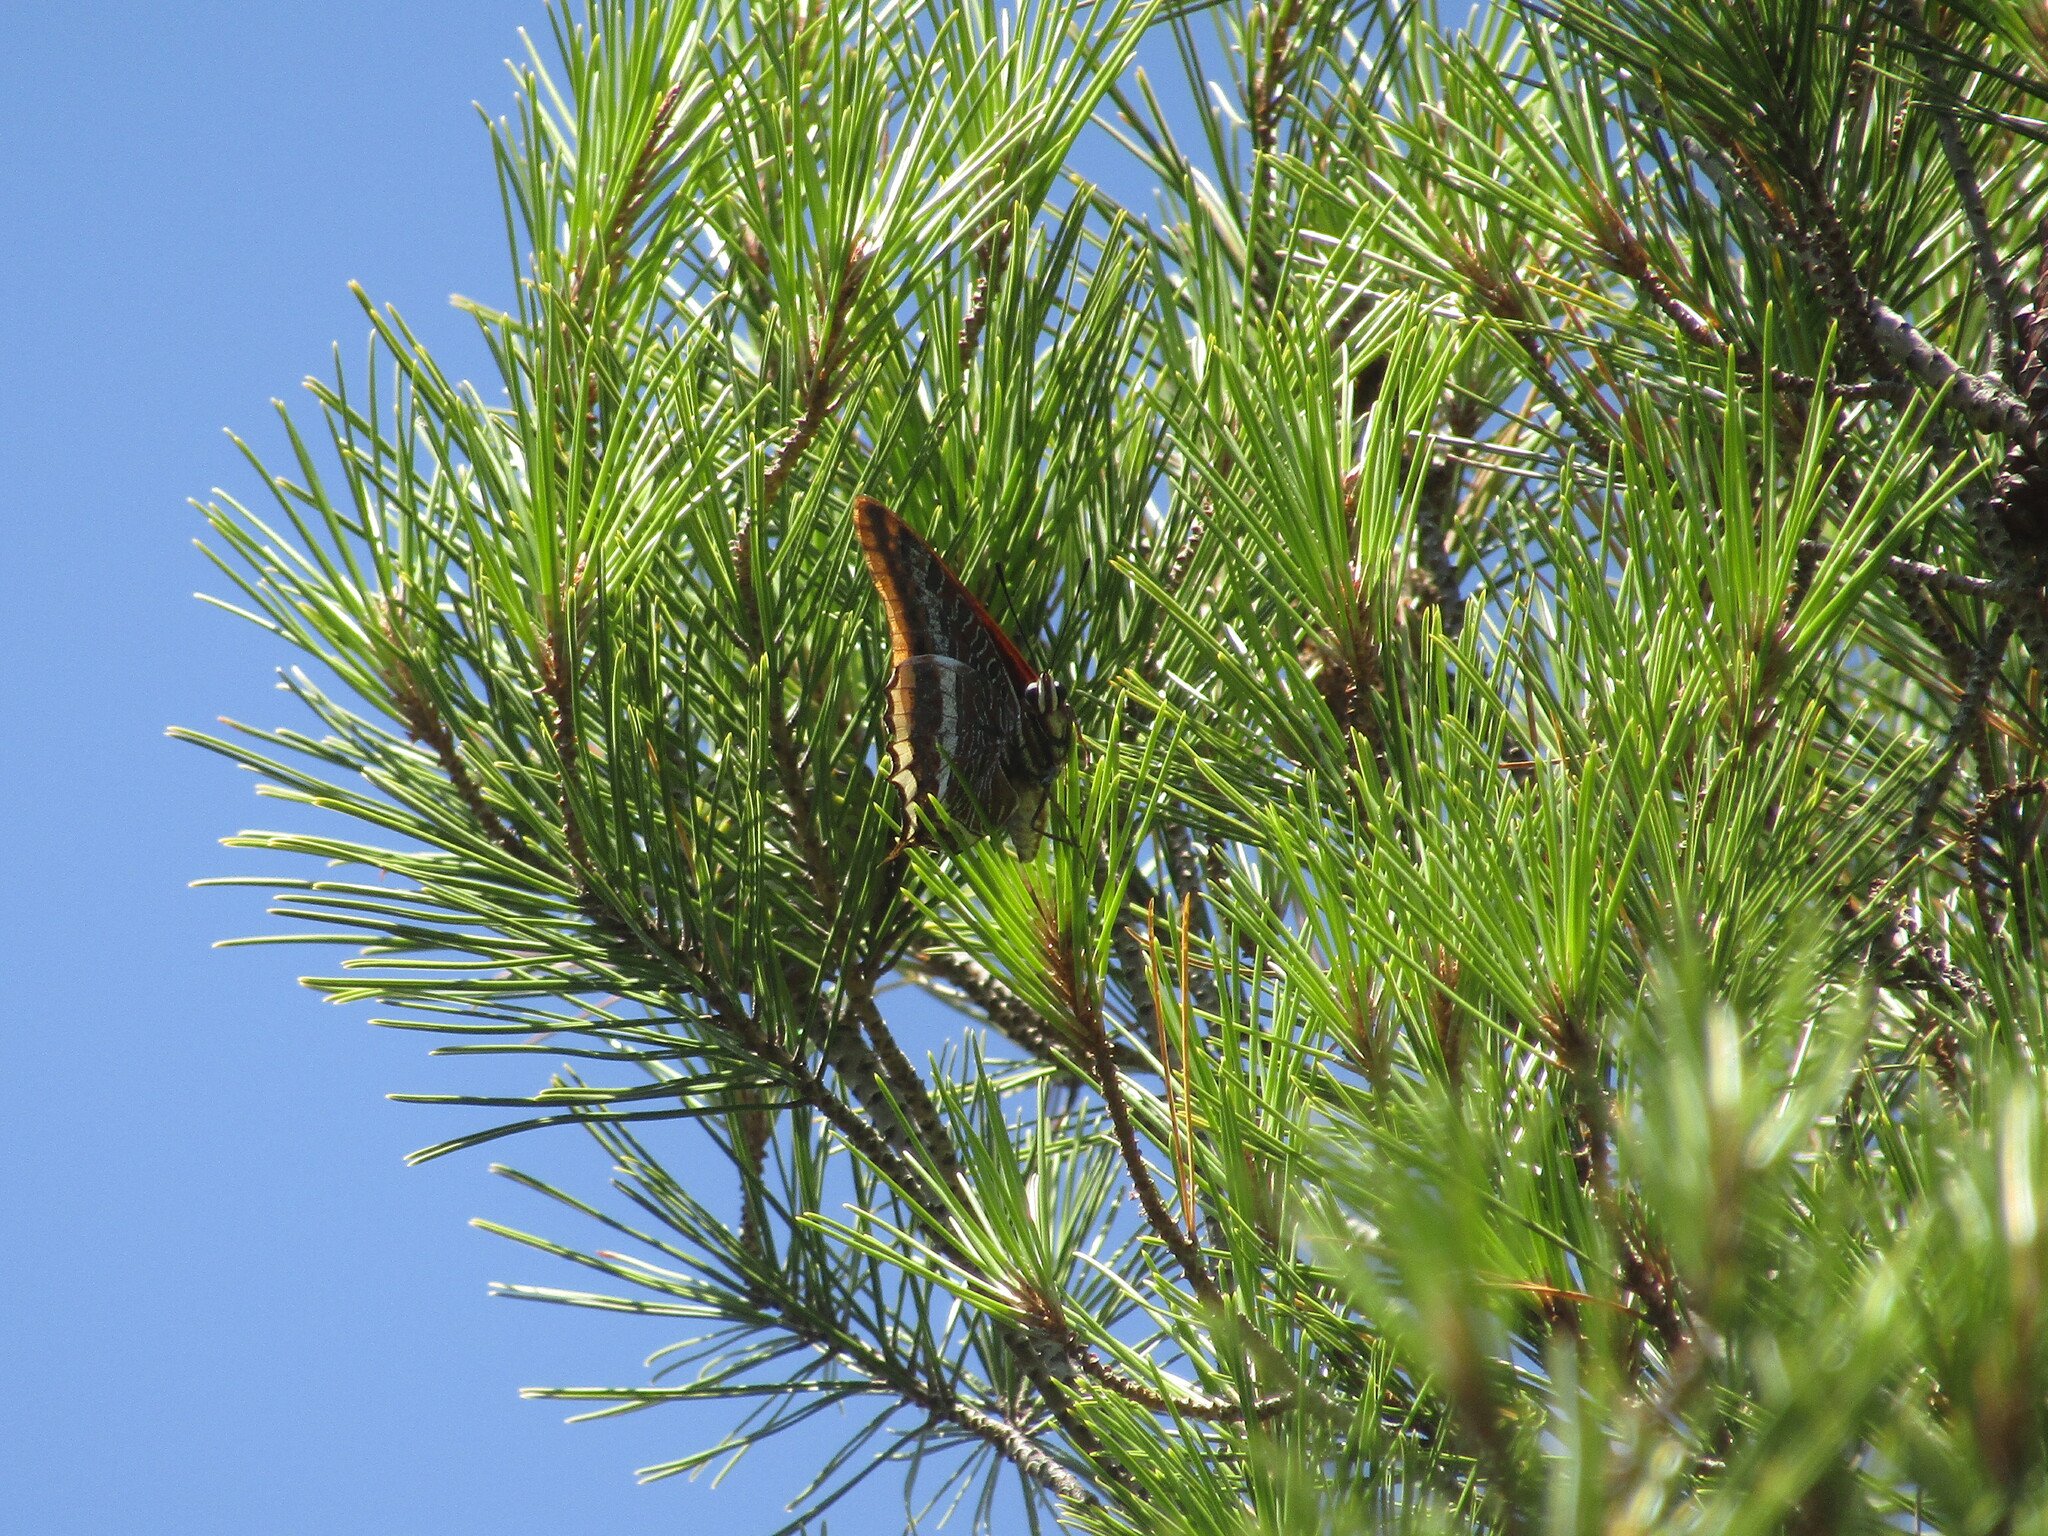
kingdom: Animalia
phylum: Arthropoda
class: Insecta
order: Lepidoptera
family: Nymphalidae
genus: Charaxes
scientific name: Charaxes jasius
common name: Two tailed pasha
